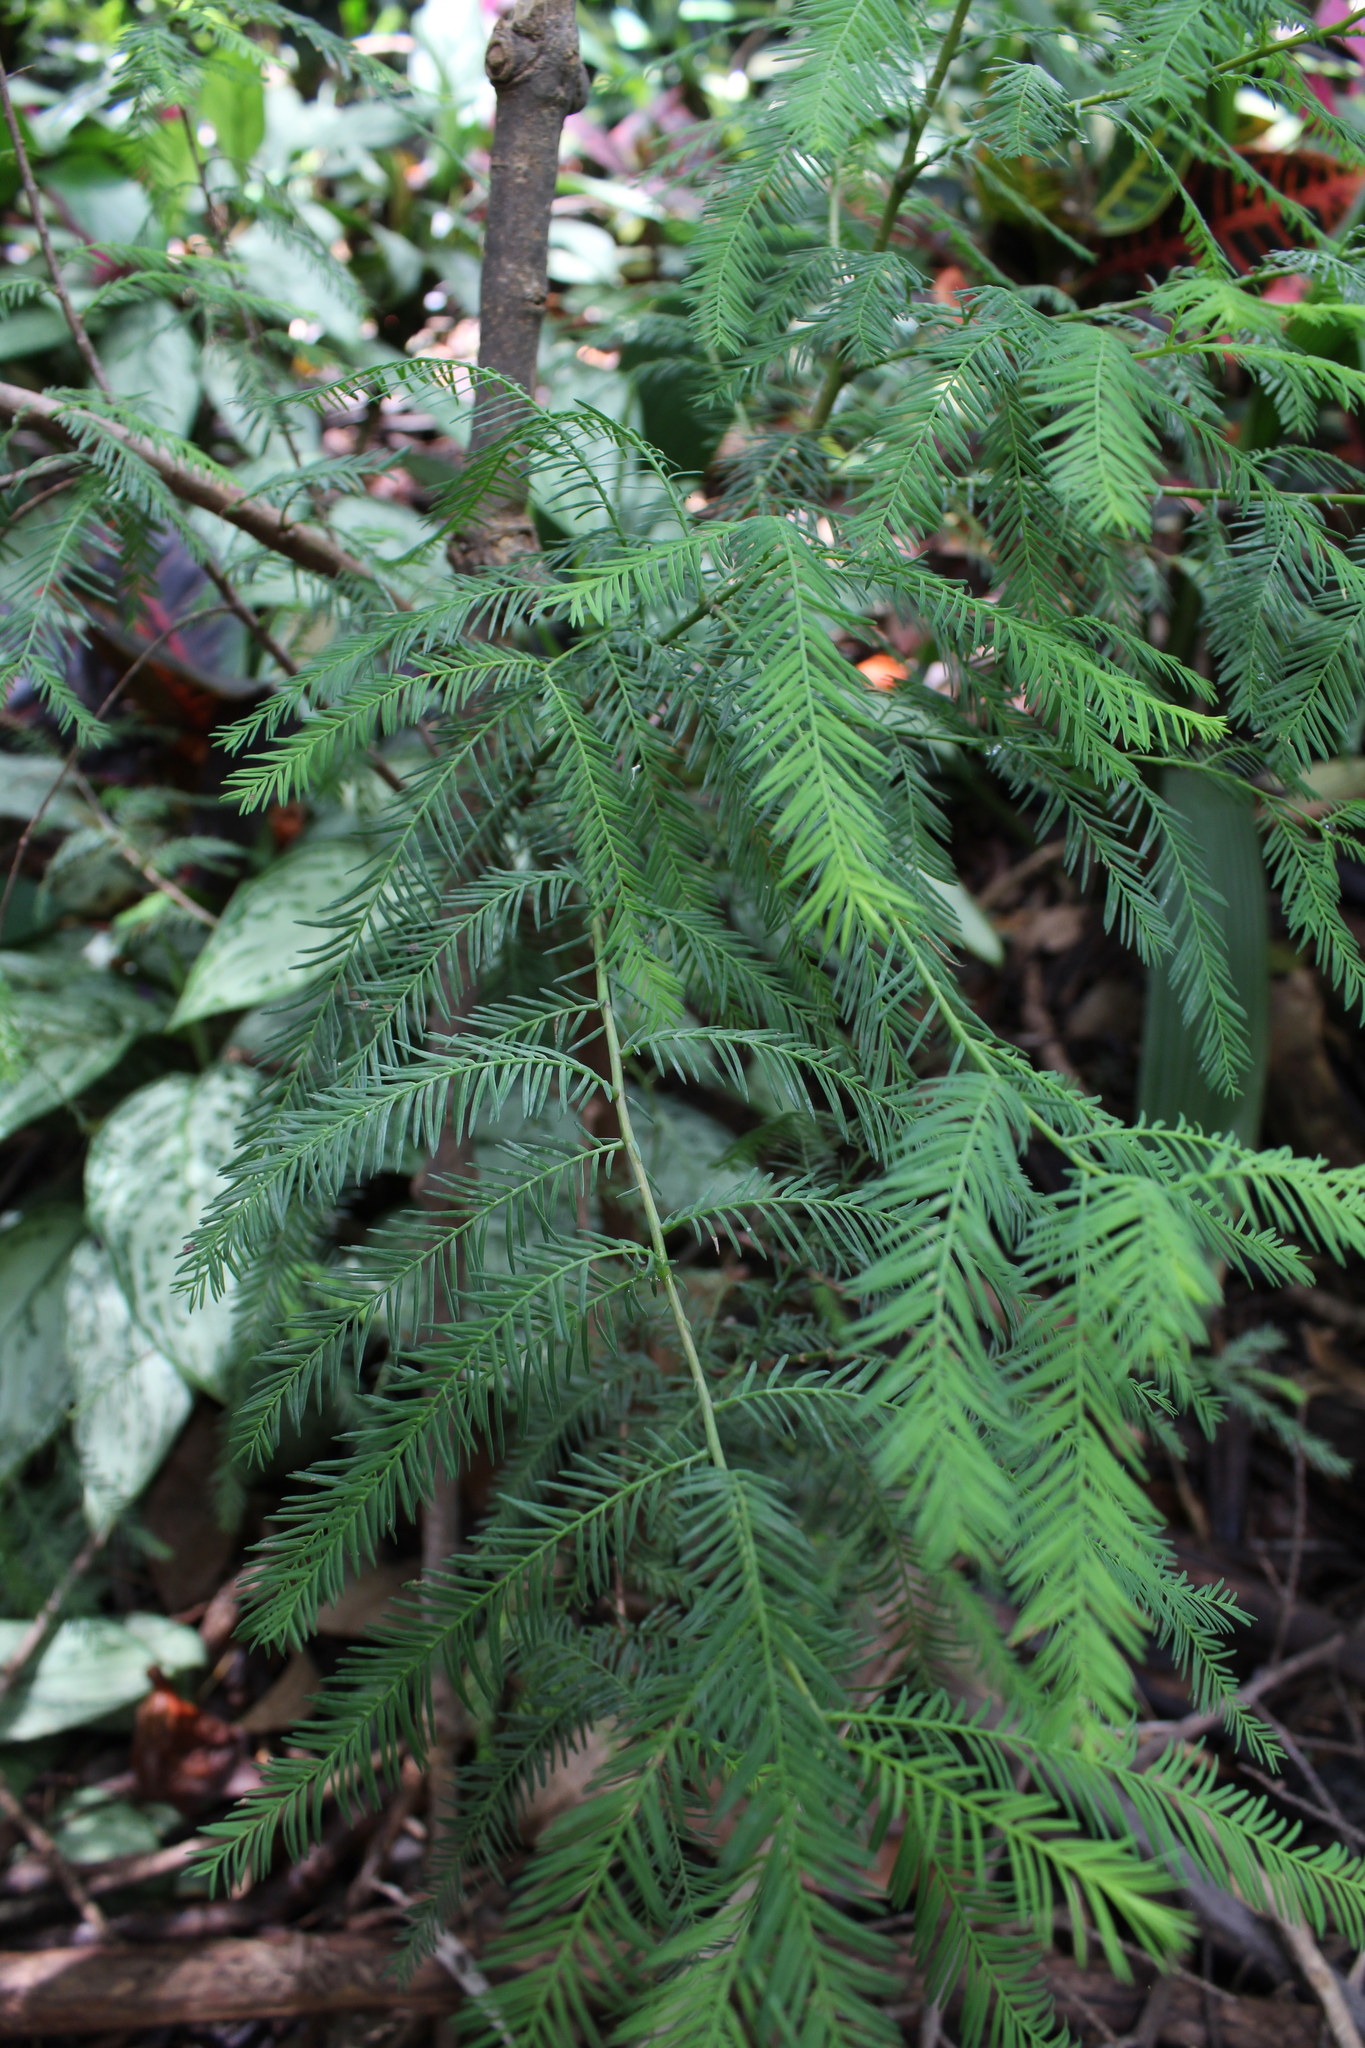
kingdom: Plantae
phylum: Tracheophyta
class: Pinopsida
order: Pinales
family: Cupressaceae
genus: Taxodium
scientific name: Taxodium mucronatum
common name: Montezume bald cypress
